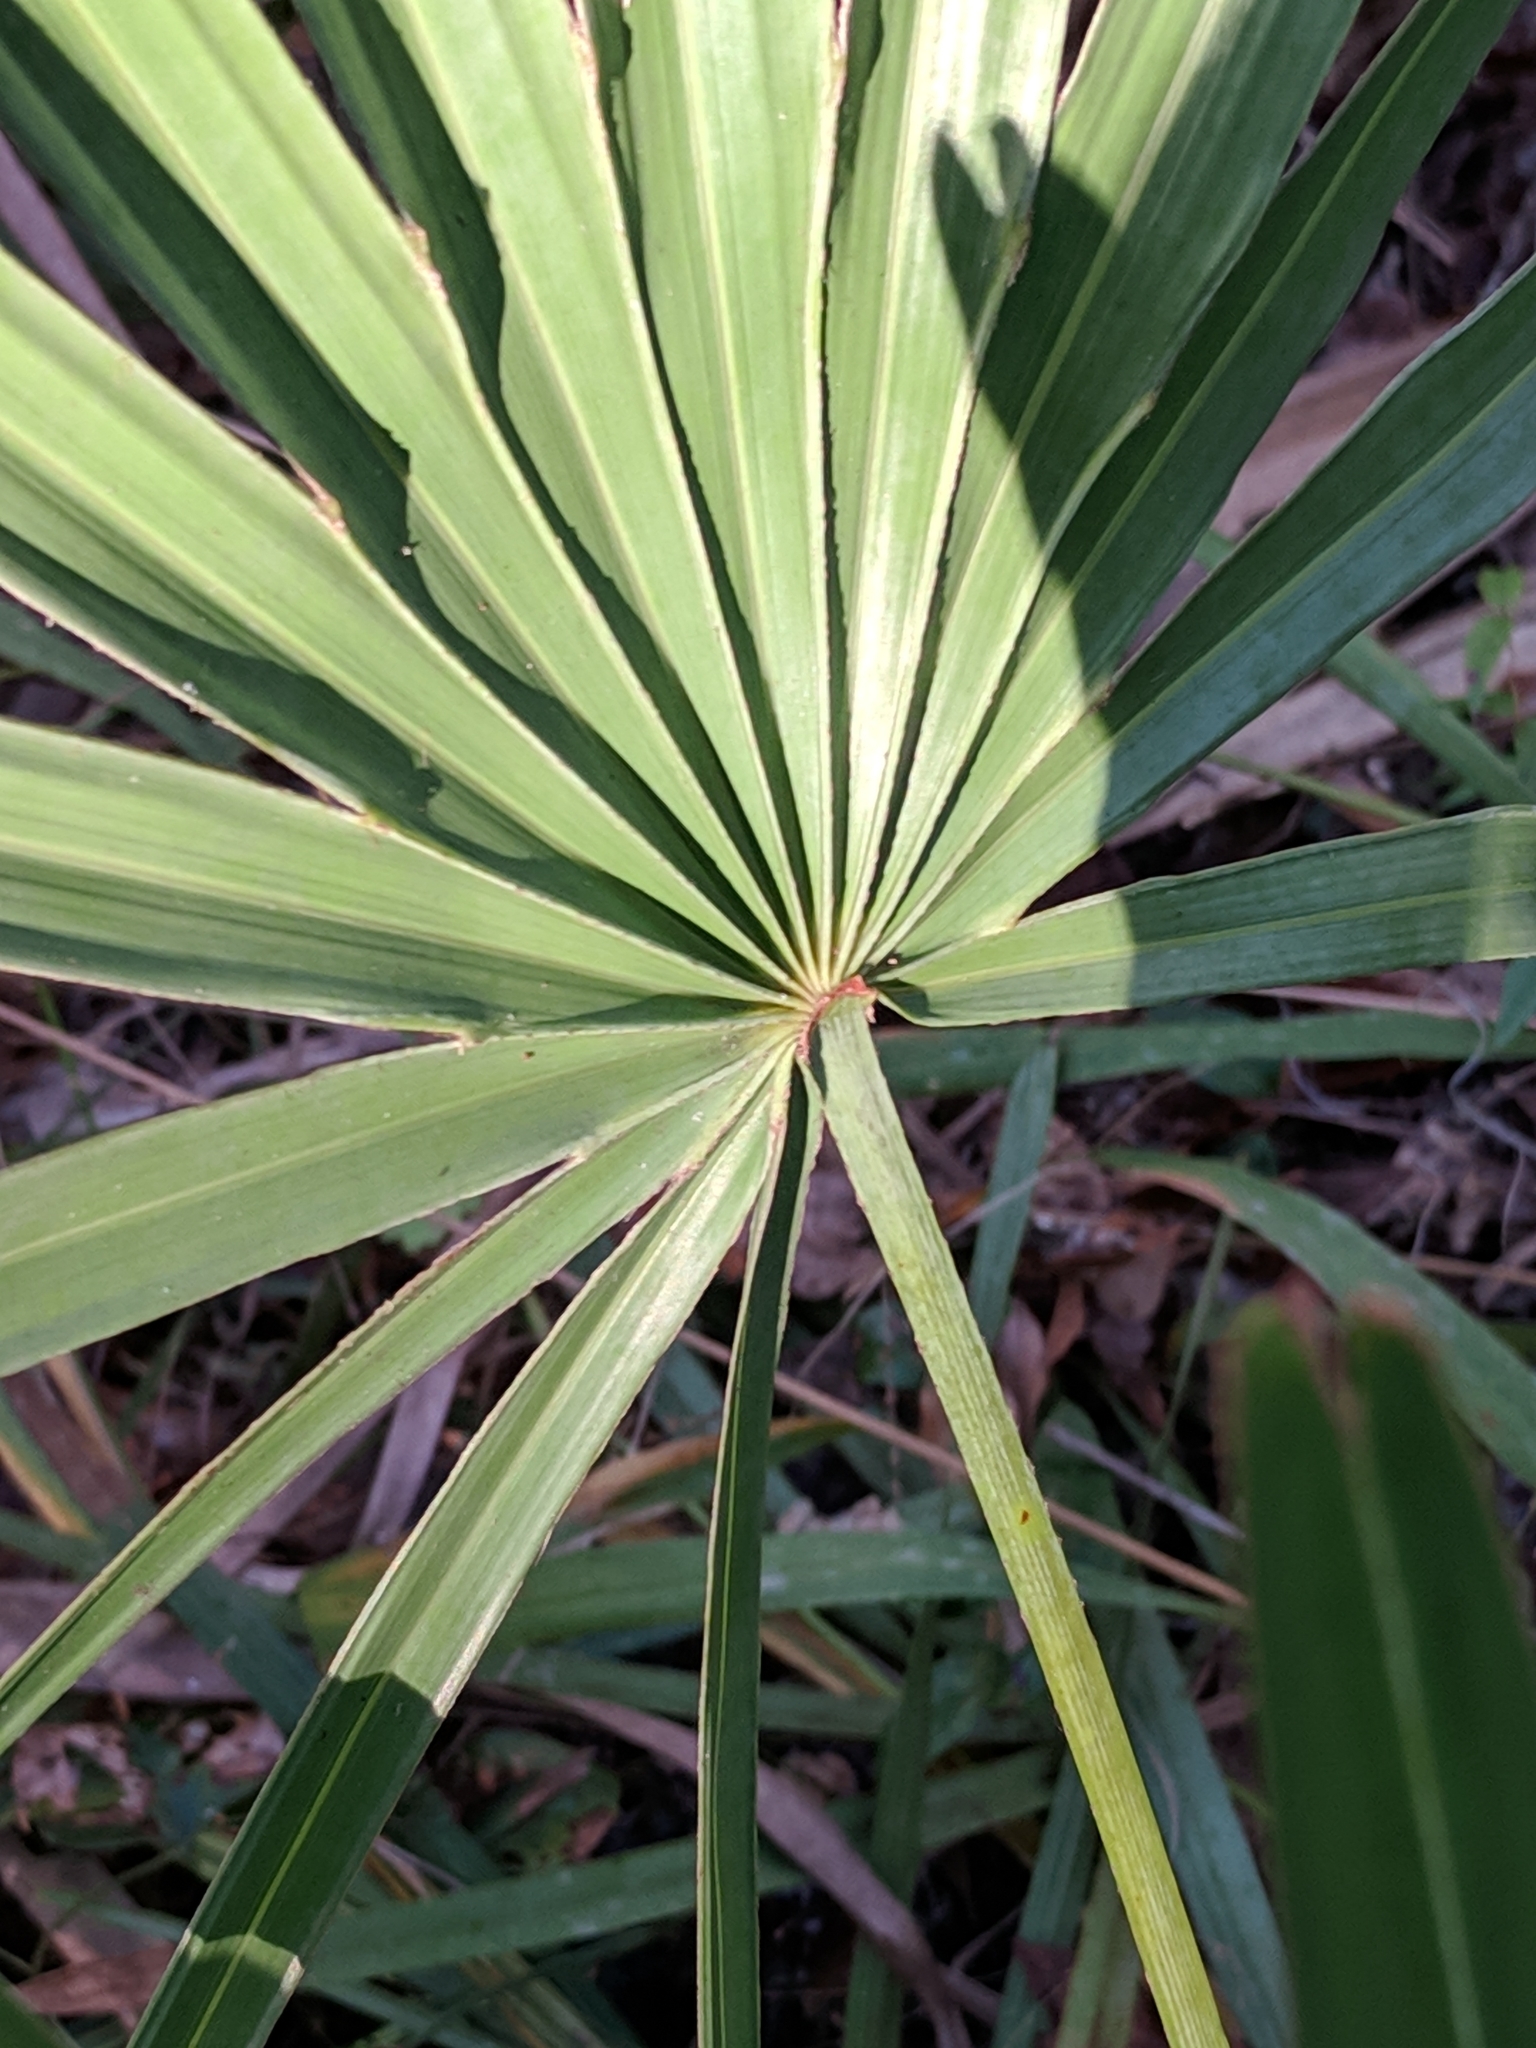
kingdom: Plantae
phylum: Tracheophyta
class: Liliopsida
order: Arecales
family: Arecaceae
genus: Serenoa
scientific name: Serenoa repens
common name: Saw-palmetto
